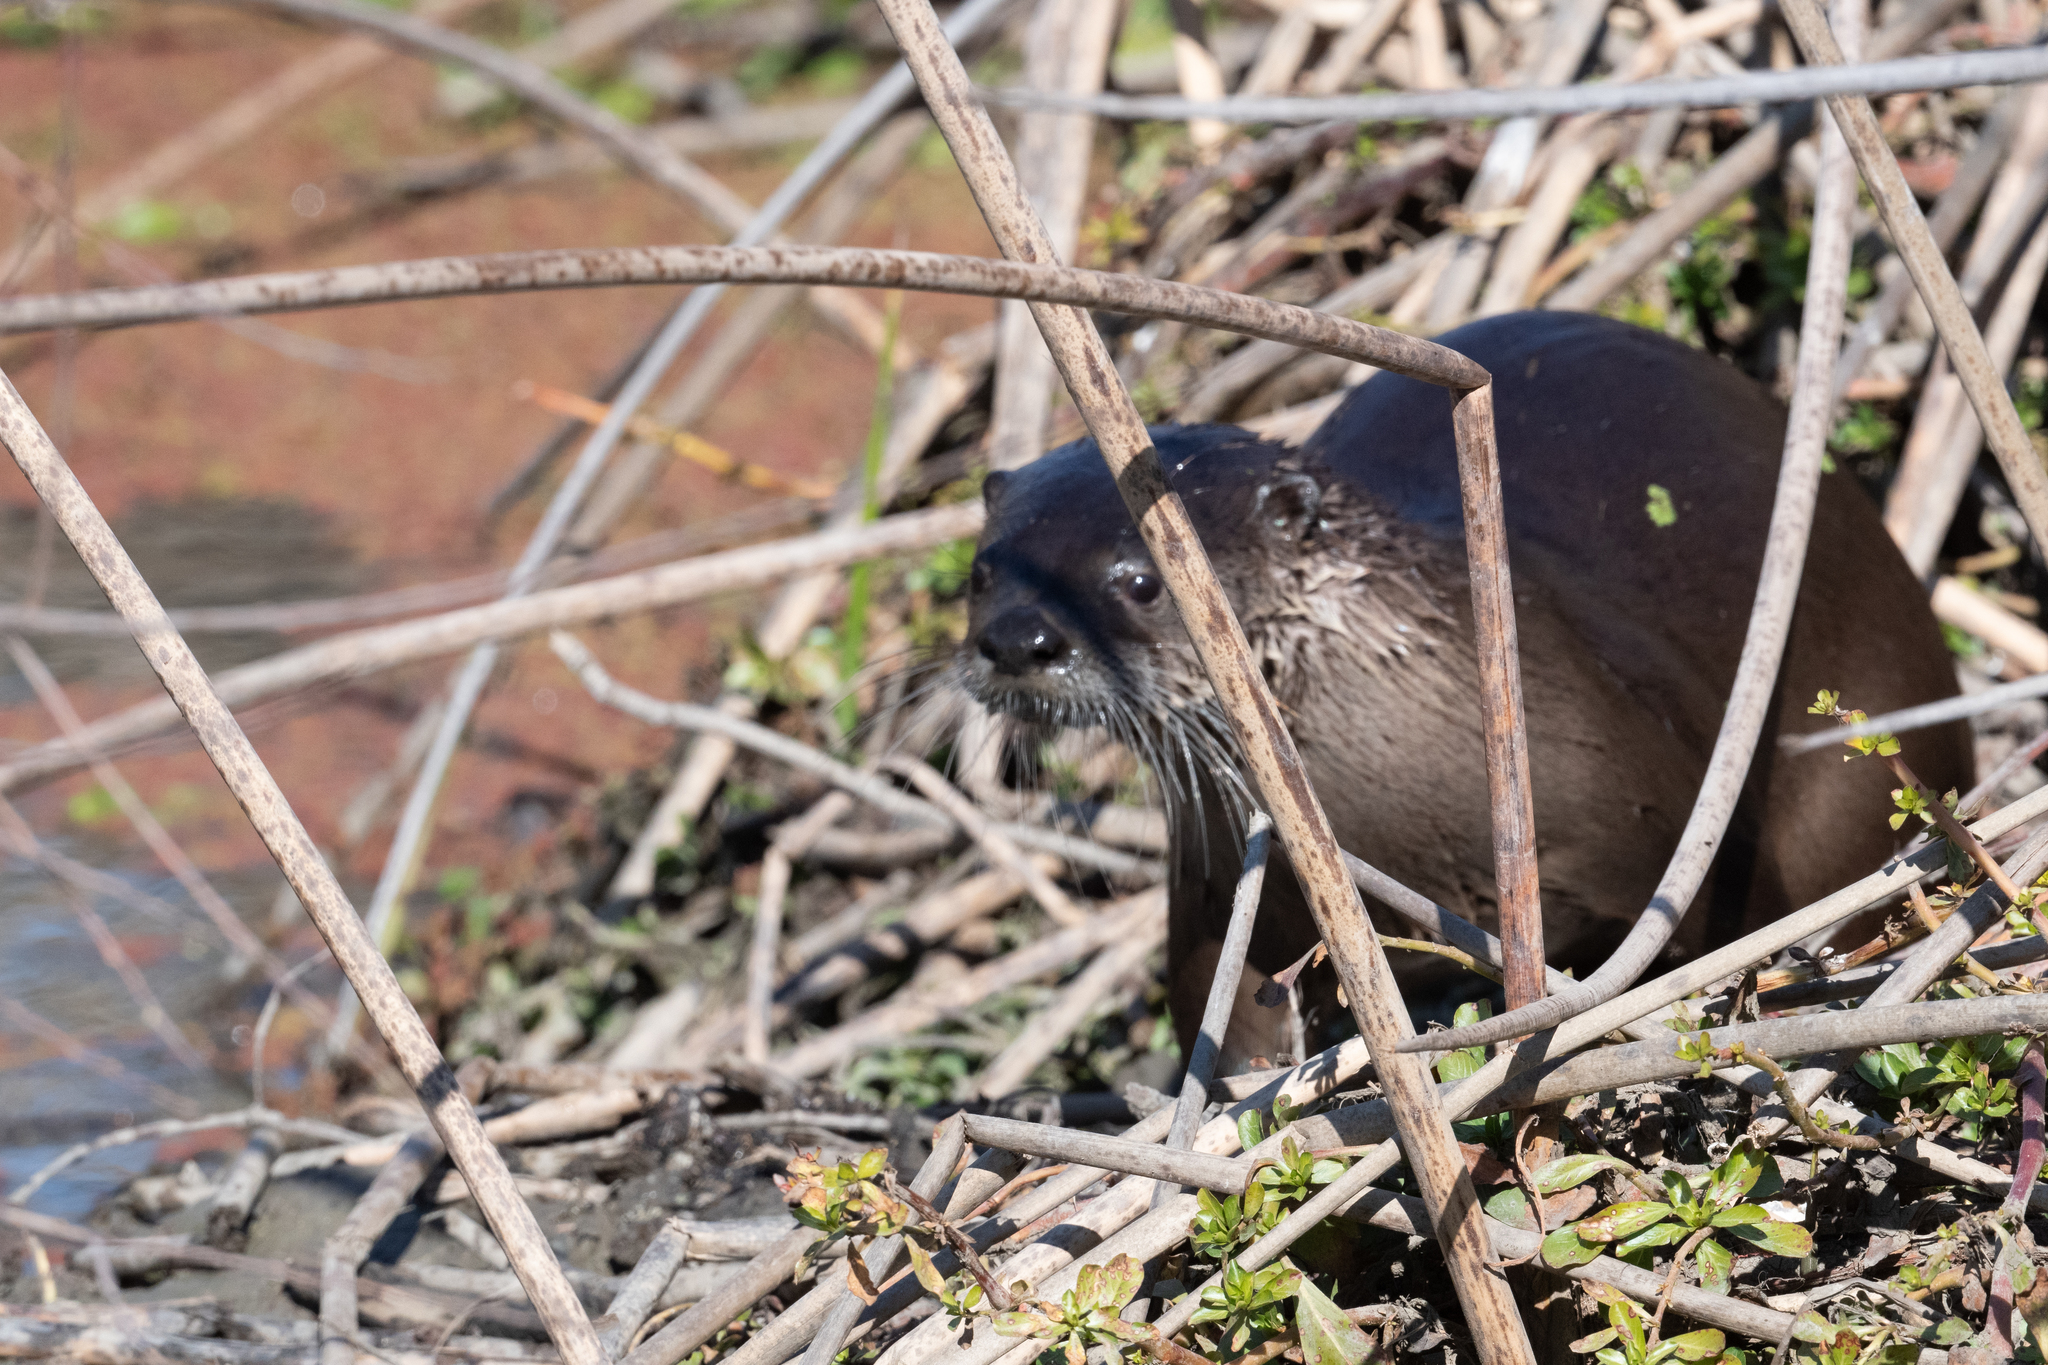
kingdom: Animalia
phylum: Chordata
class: Mammalia
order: Carnivora
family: Mustelidae
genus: Lontra
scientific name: Lontra canadensis
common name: North american river otter
